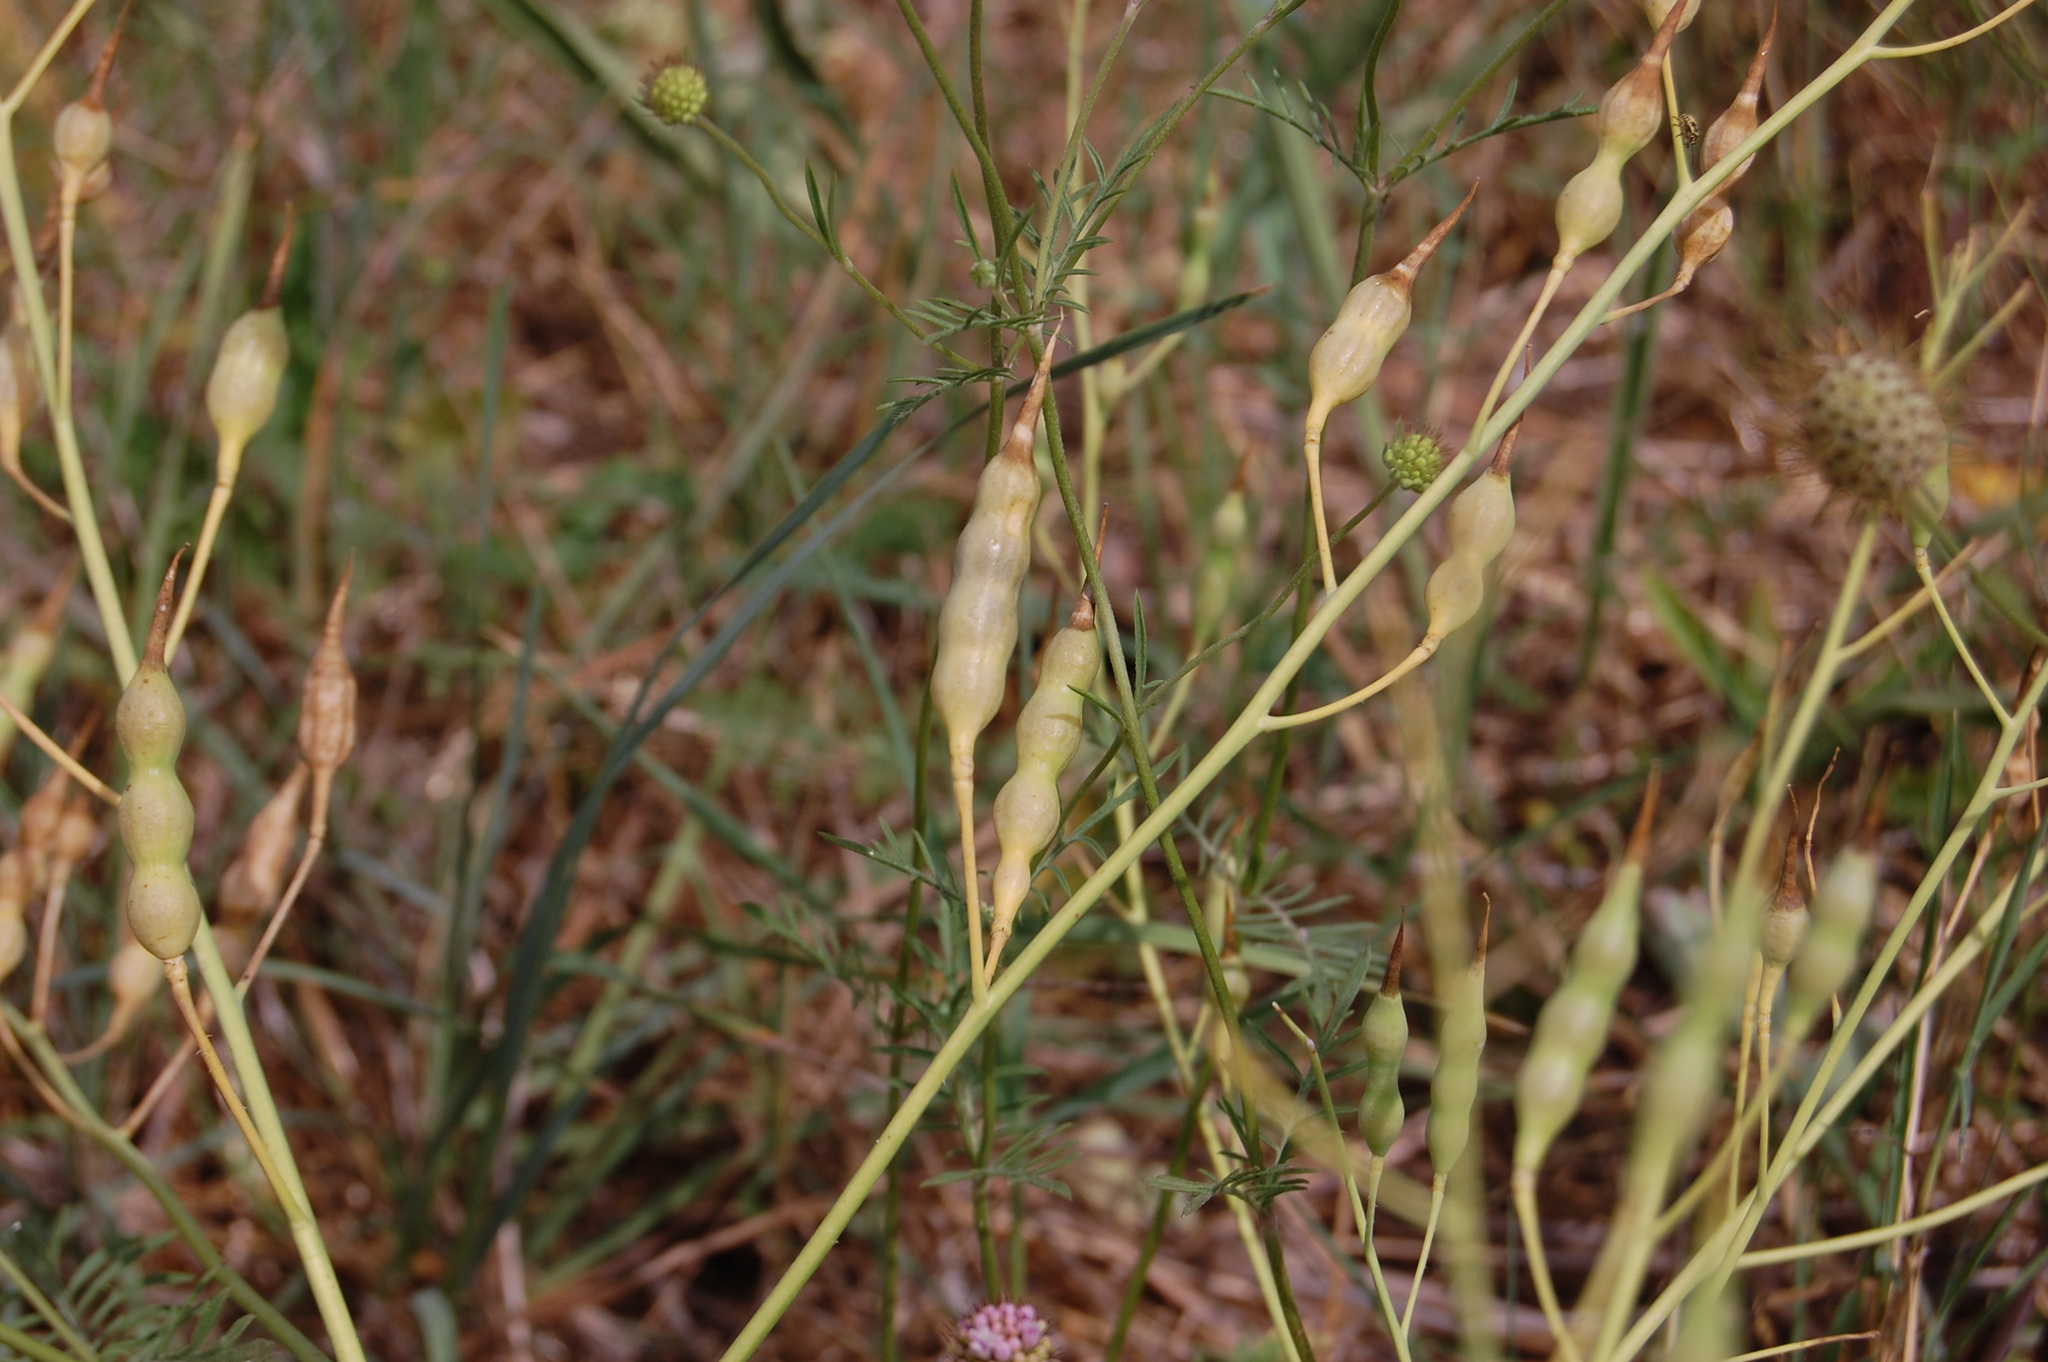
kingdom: Plantae
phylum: Tracheophyta
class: Magnoliopsida
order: Brassicales
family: Brassicaceae
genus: Raphanus
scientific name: Raphanus raphanistrum
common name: Wild radish
